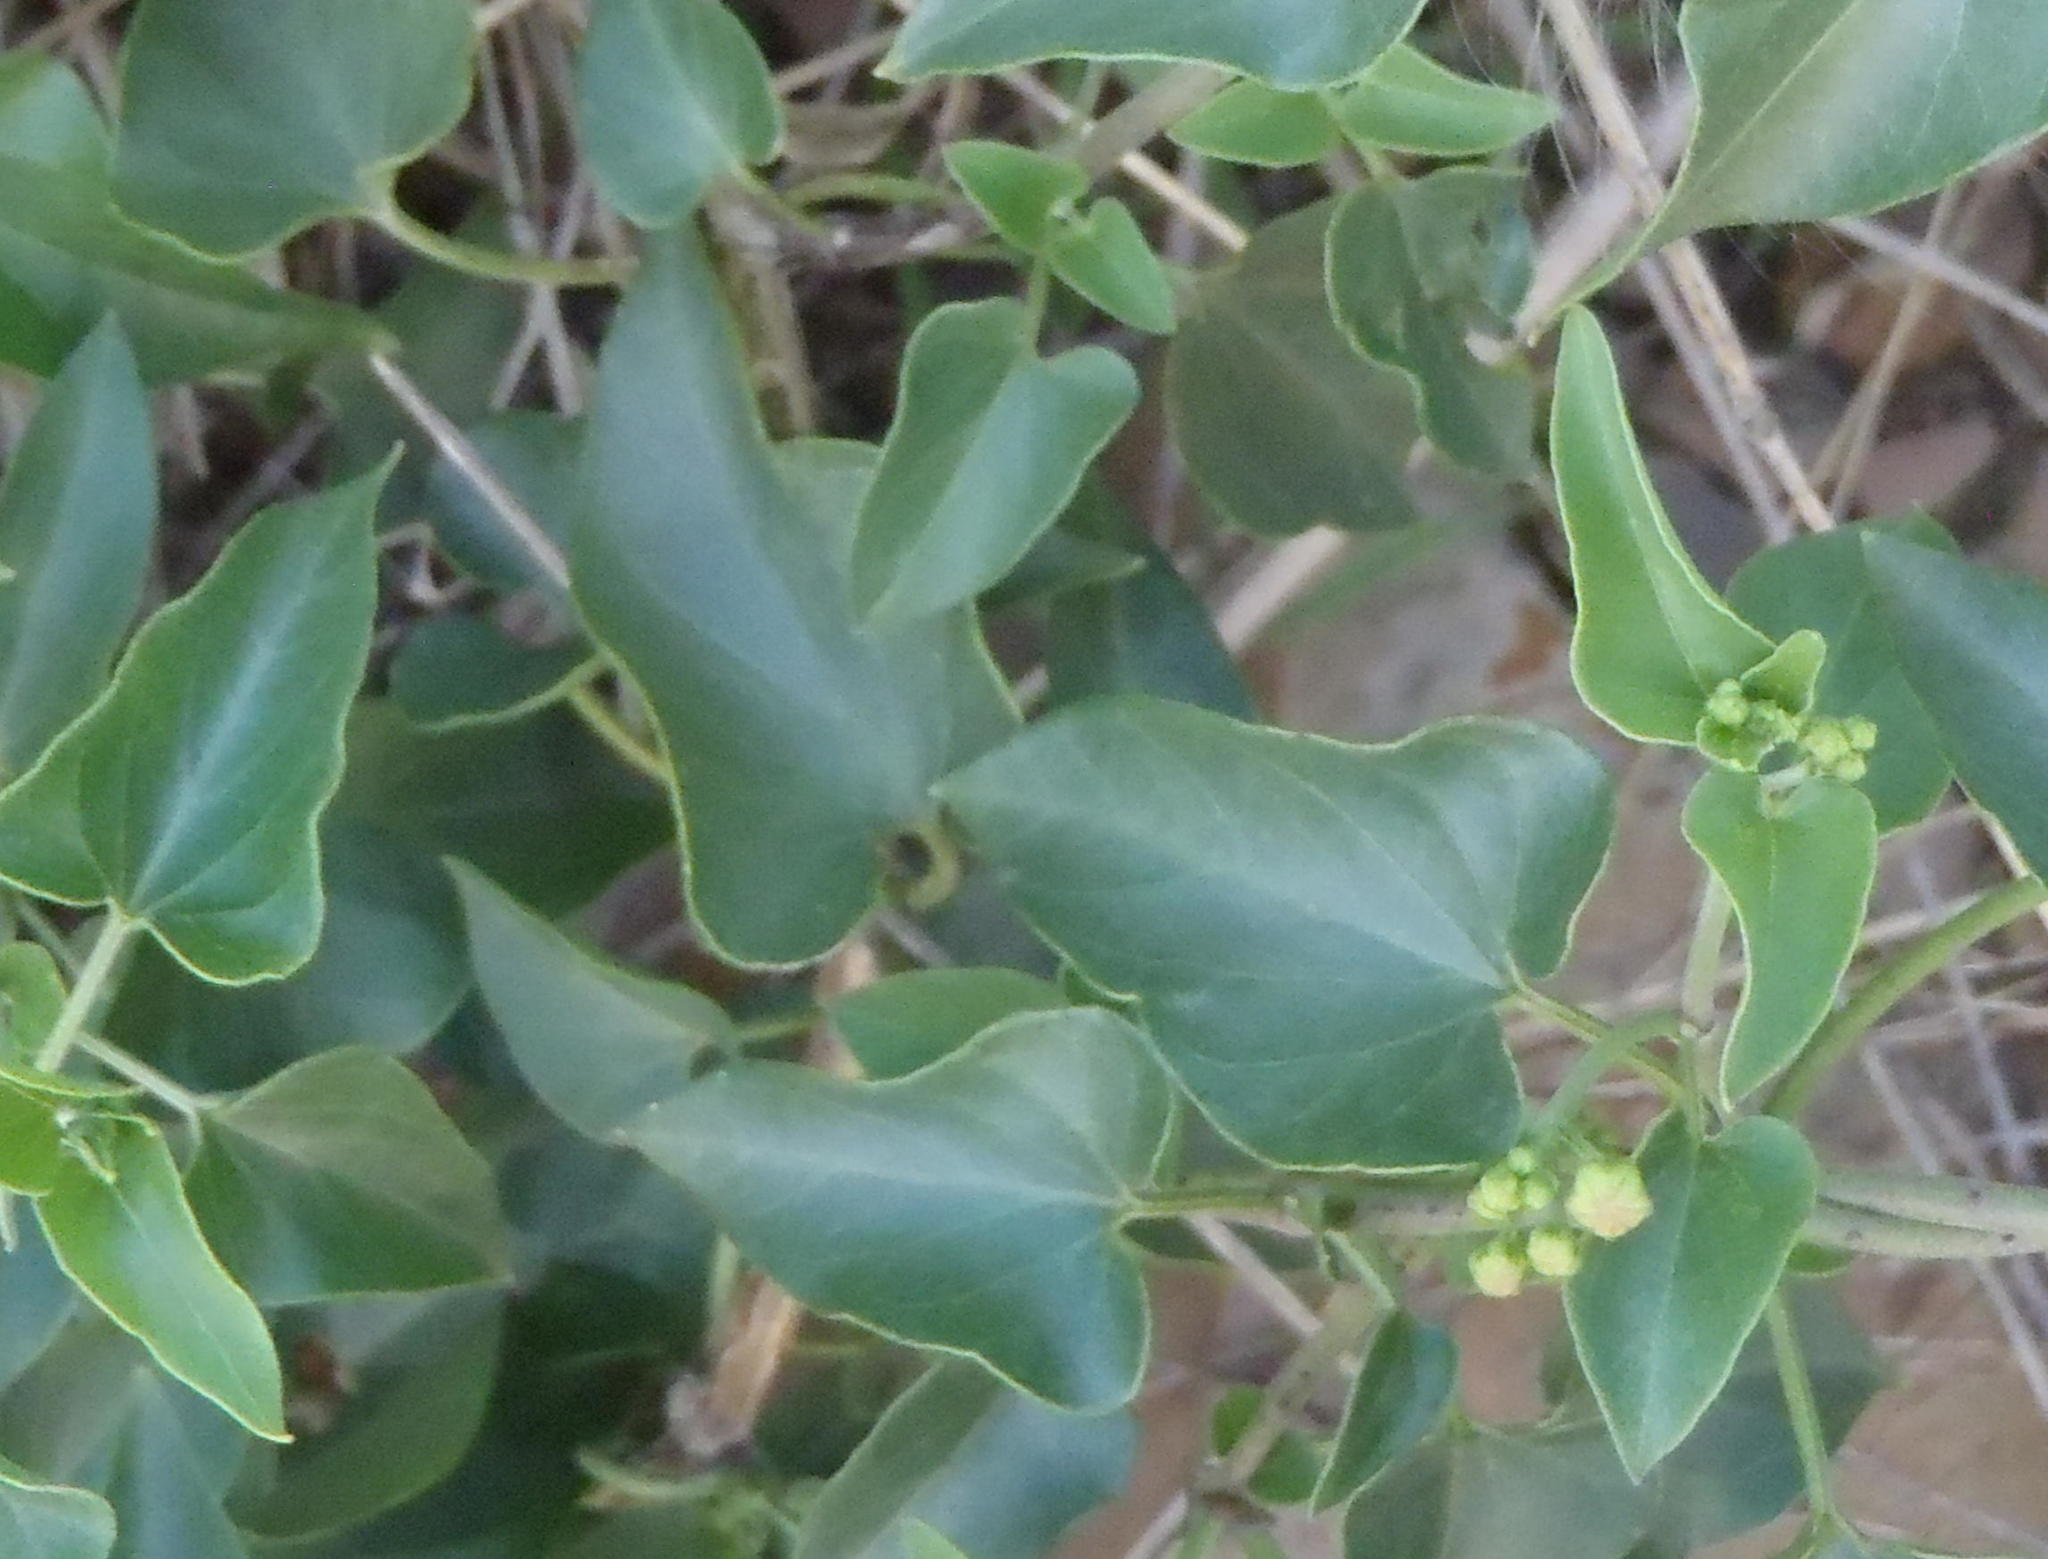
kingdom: Plantae
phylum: Tracheophyta
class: Magnoliopsida
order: Gentianales
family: Apocynaceae
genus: Cynanchum
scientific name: Cynanchum
